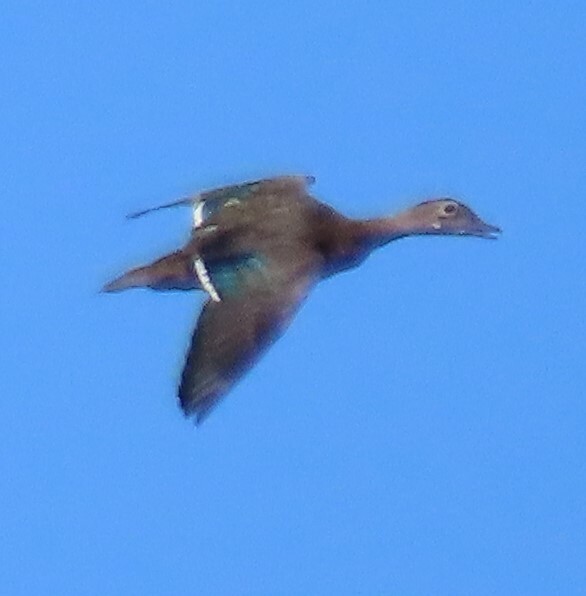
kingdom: Animalia
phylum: Chordata
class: Aves
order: Anseriformes
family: Anatidae
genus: Aix
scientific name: Aix sponsa
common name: Wood duck
